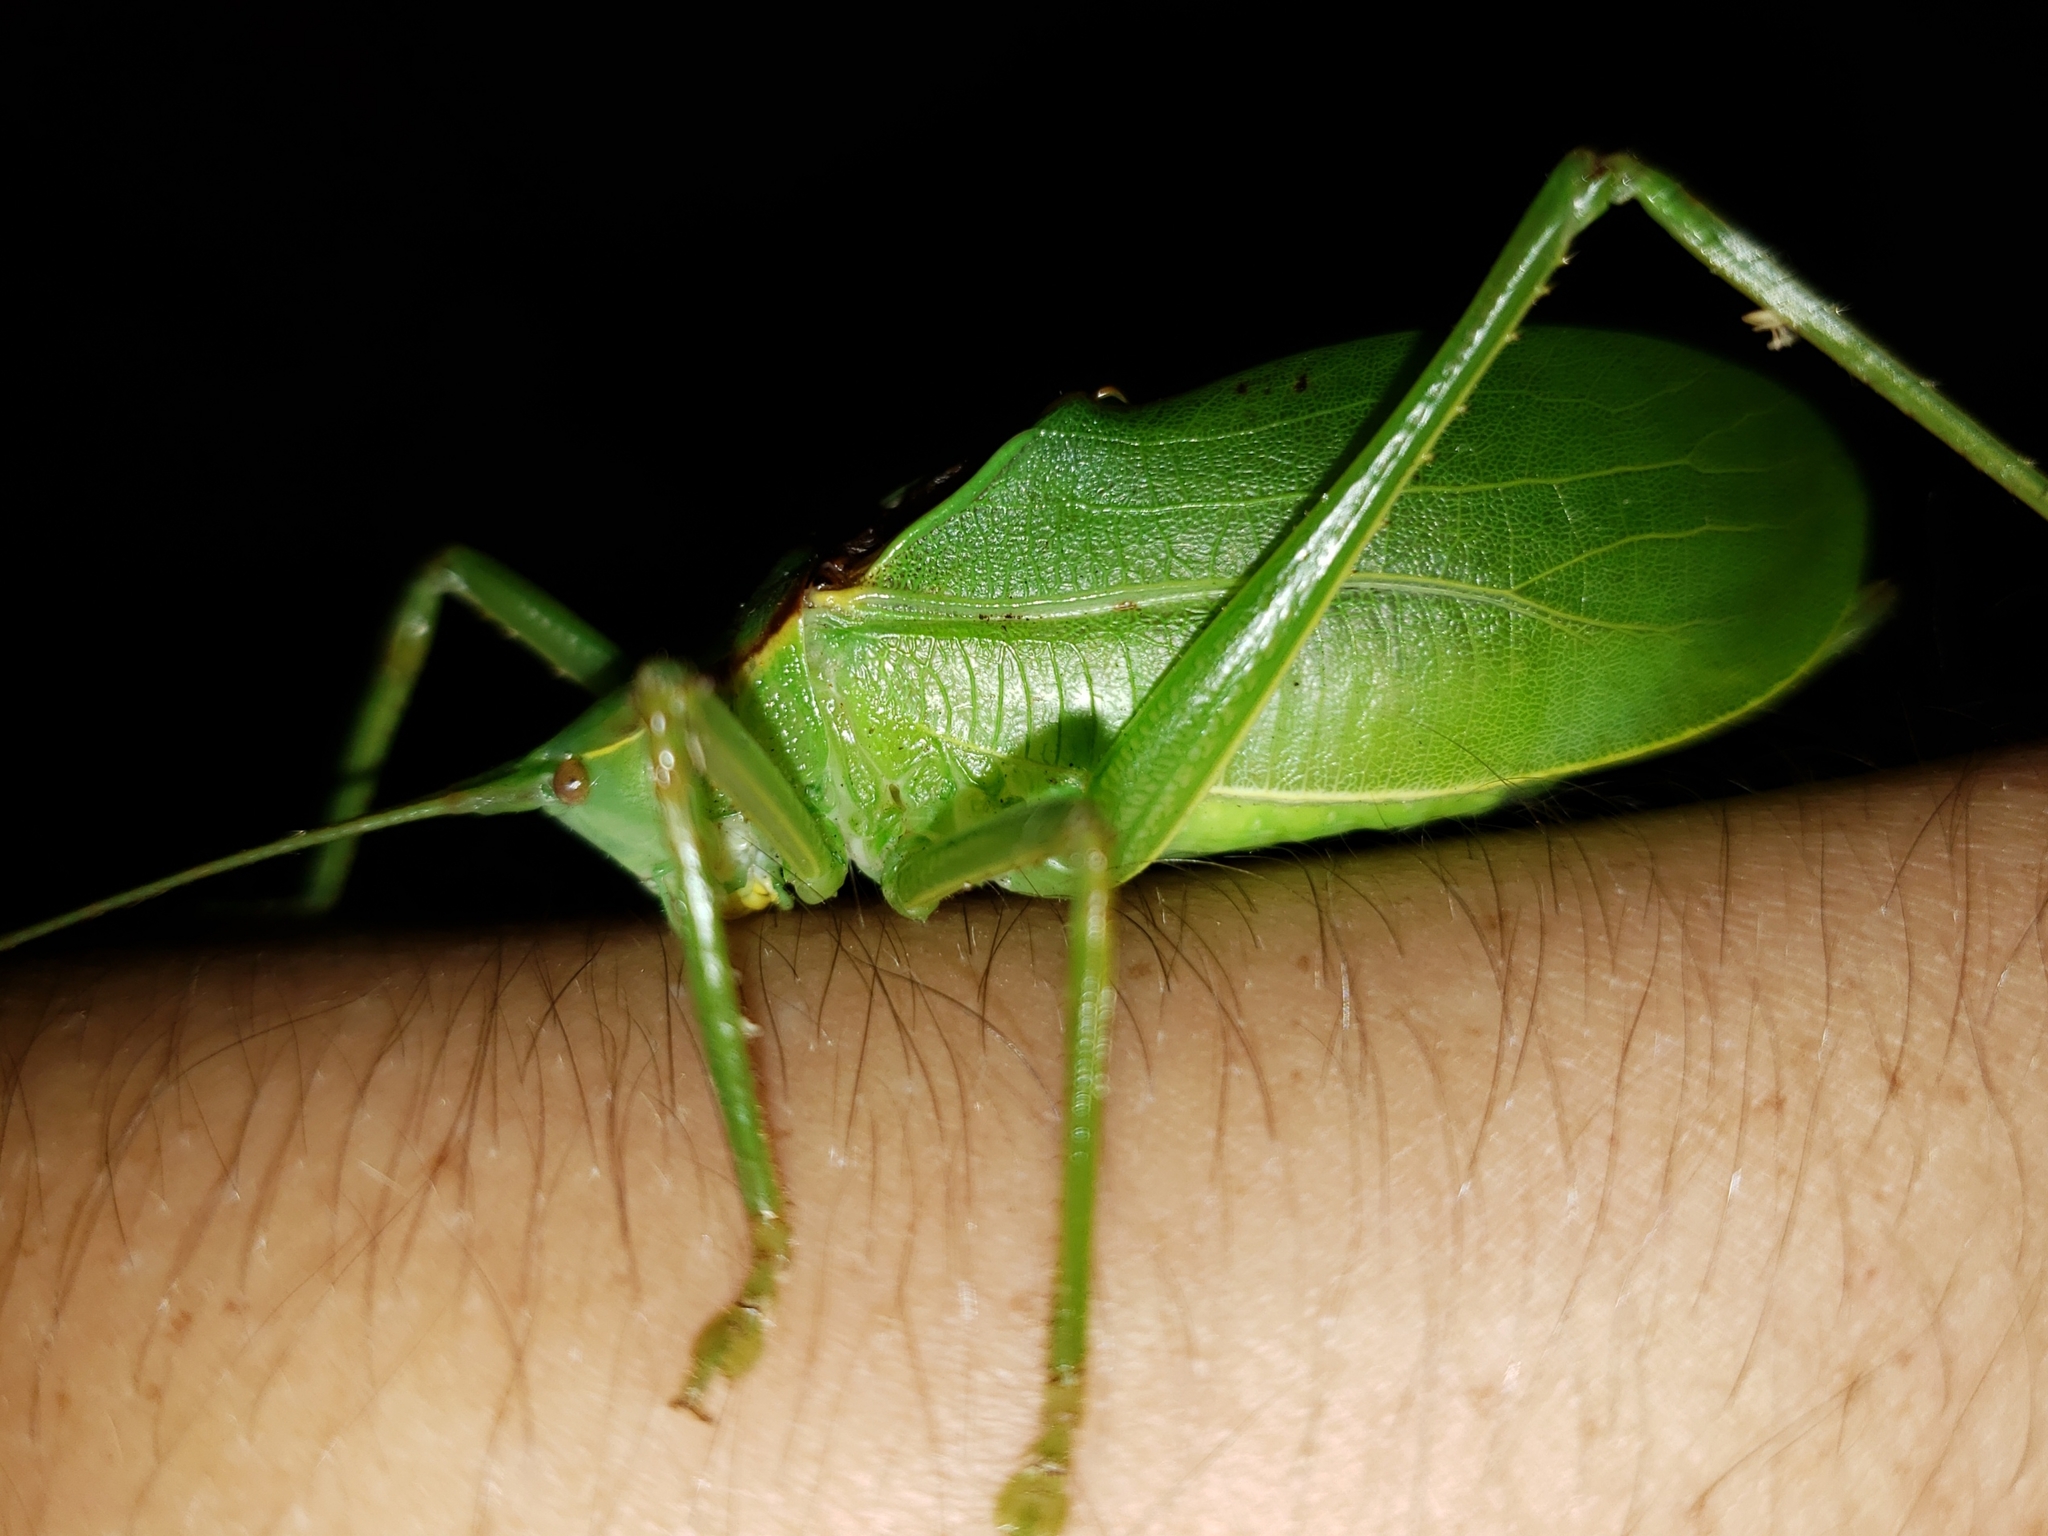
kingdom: Animalia
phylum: Arthropoda
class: Insecta
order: Orthoptera
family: Tettigoniidae
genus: Lea
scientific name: Lea floridensis
